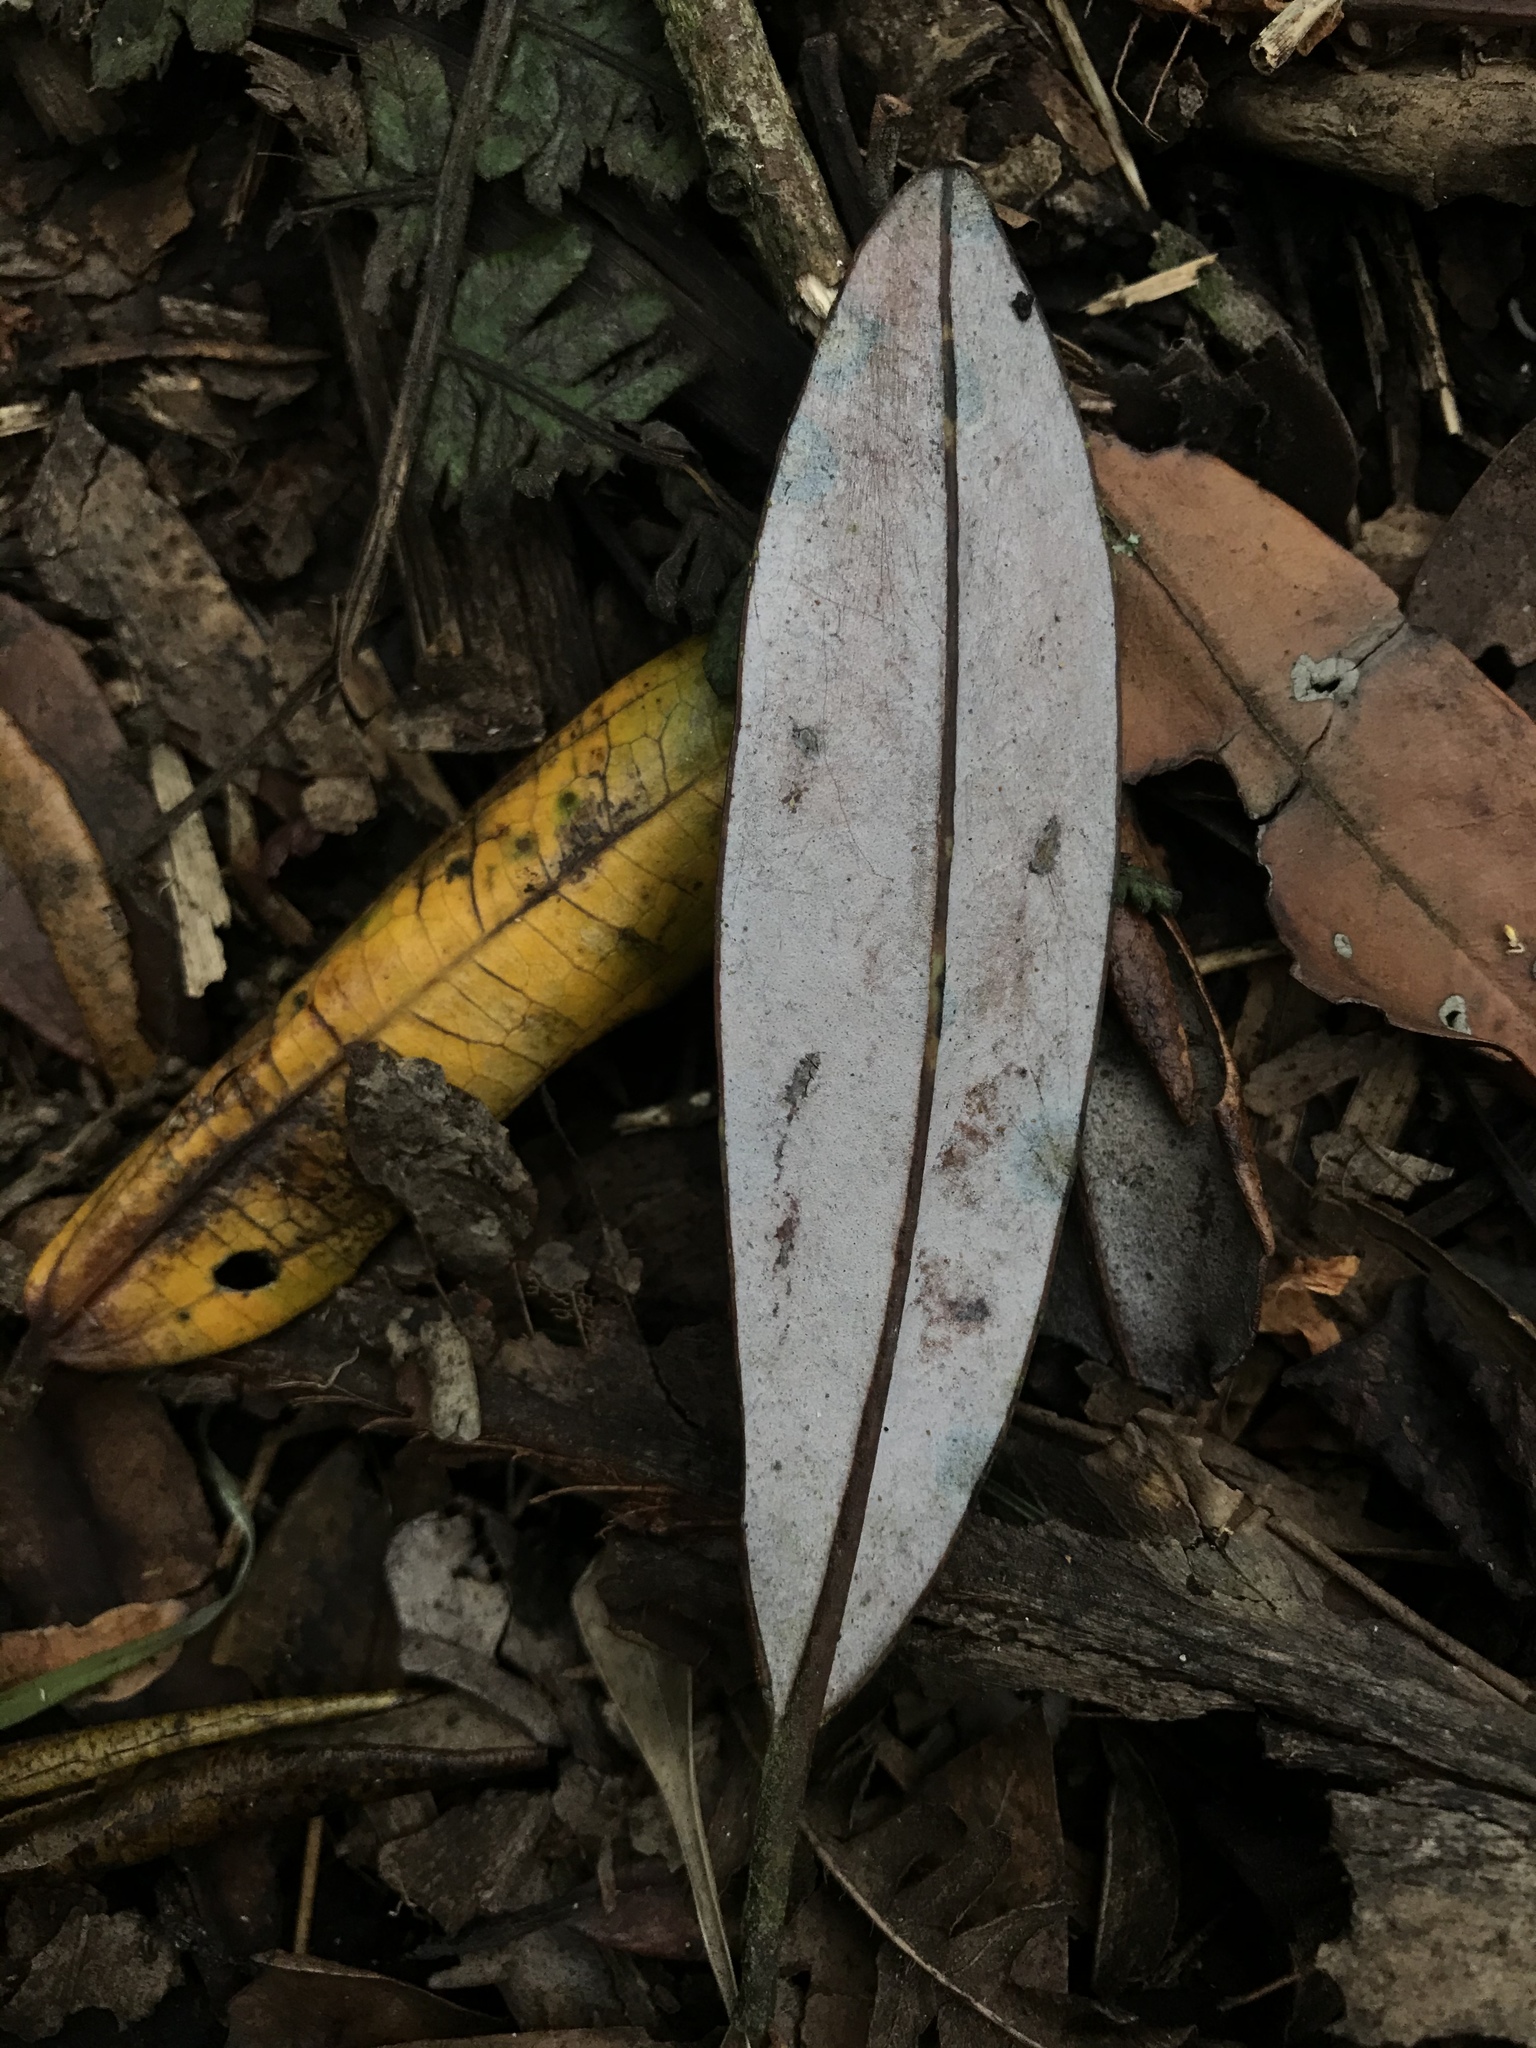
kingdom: Plantae
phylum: Tracheophyta
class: Magnoliopsida
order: Canellales
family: Winteraceae
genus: Drimys
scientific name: Drimys granadensis
